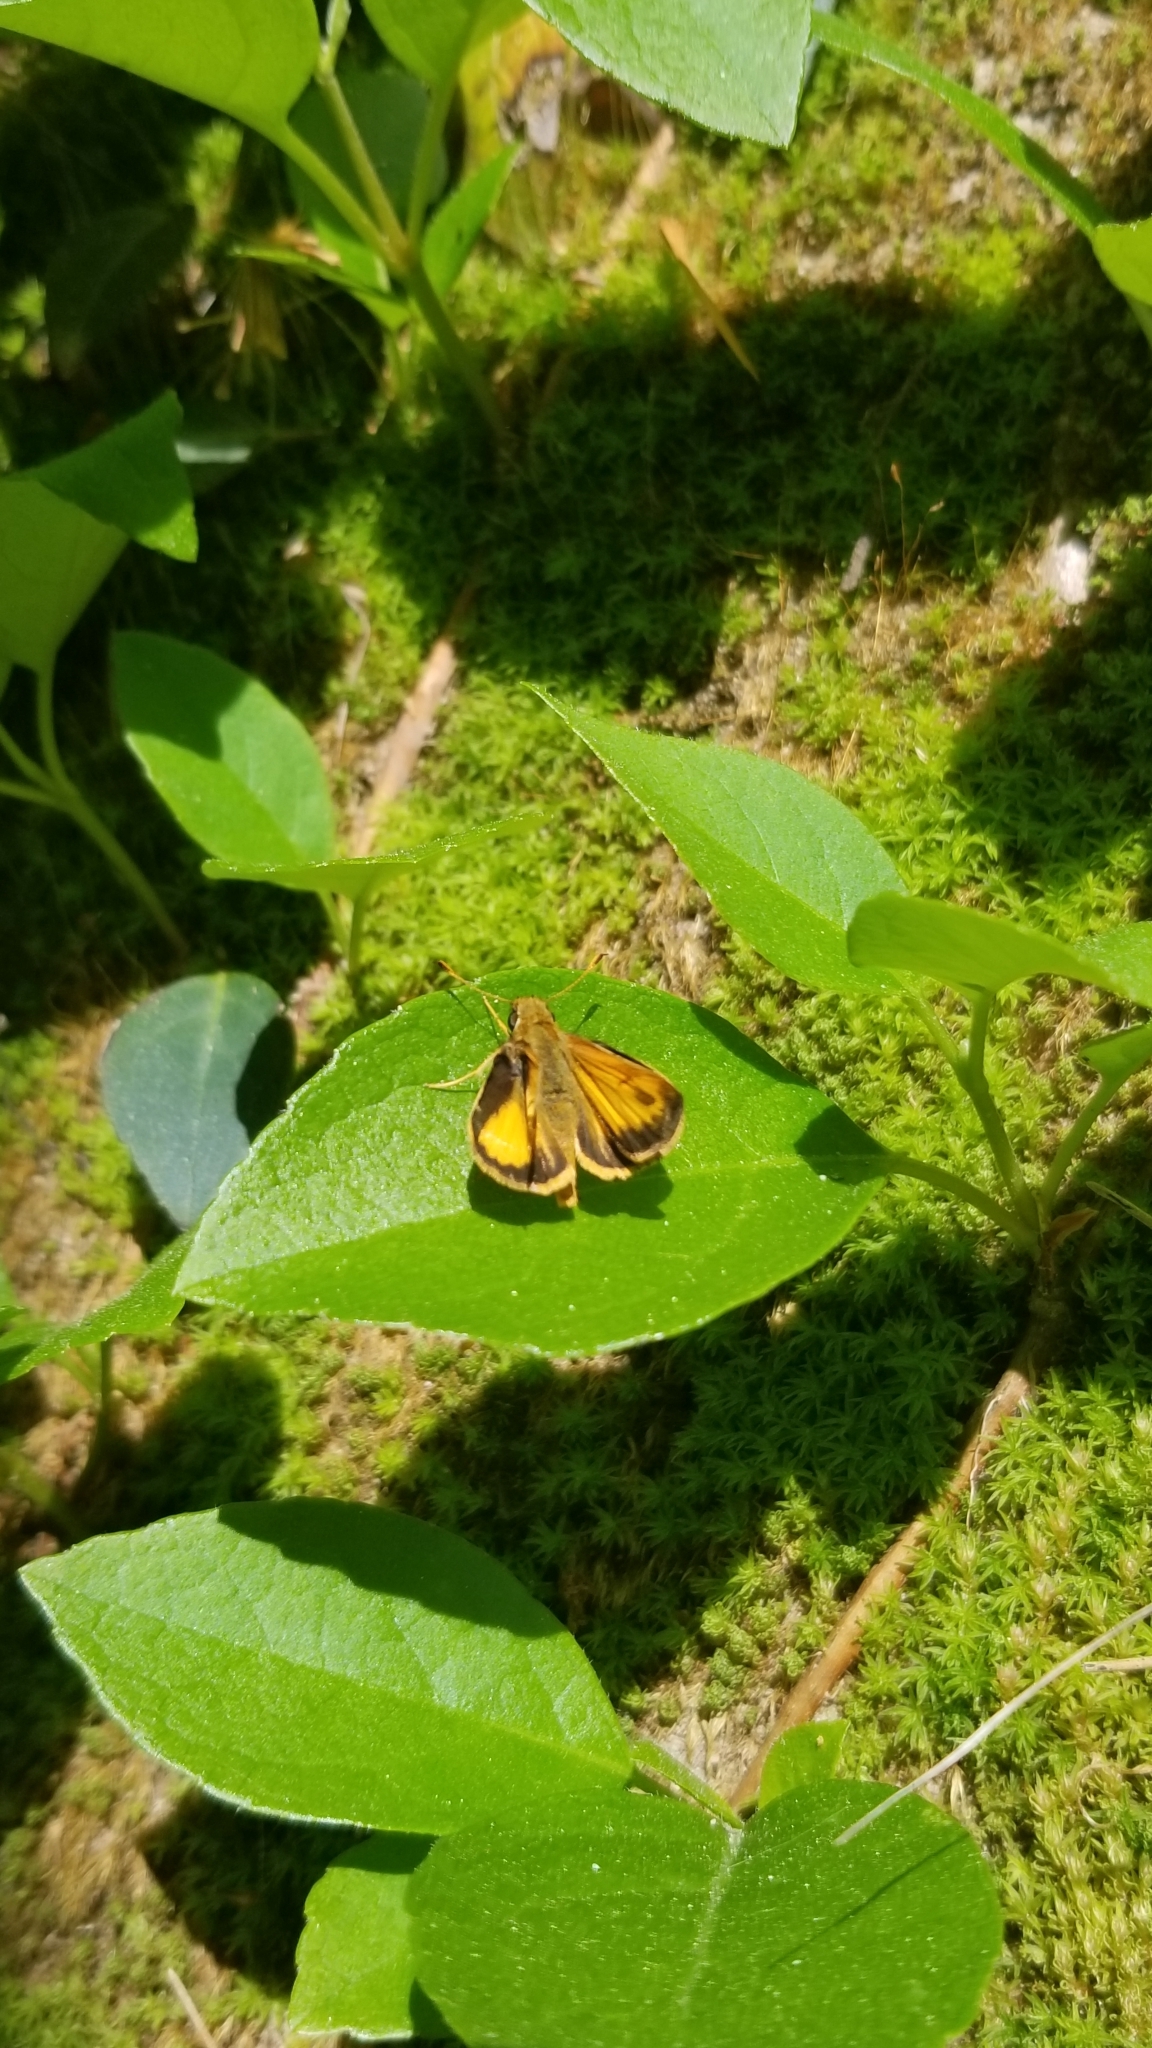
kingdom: Animalia
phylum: Arthropoda
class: Insecta
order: Lepidoptera
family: Hesperiidae
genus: Lon
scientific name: Lon zabulon
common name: Zabulon skipper
